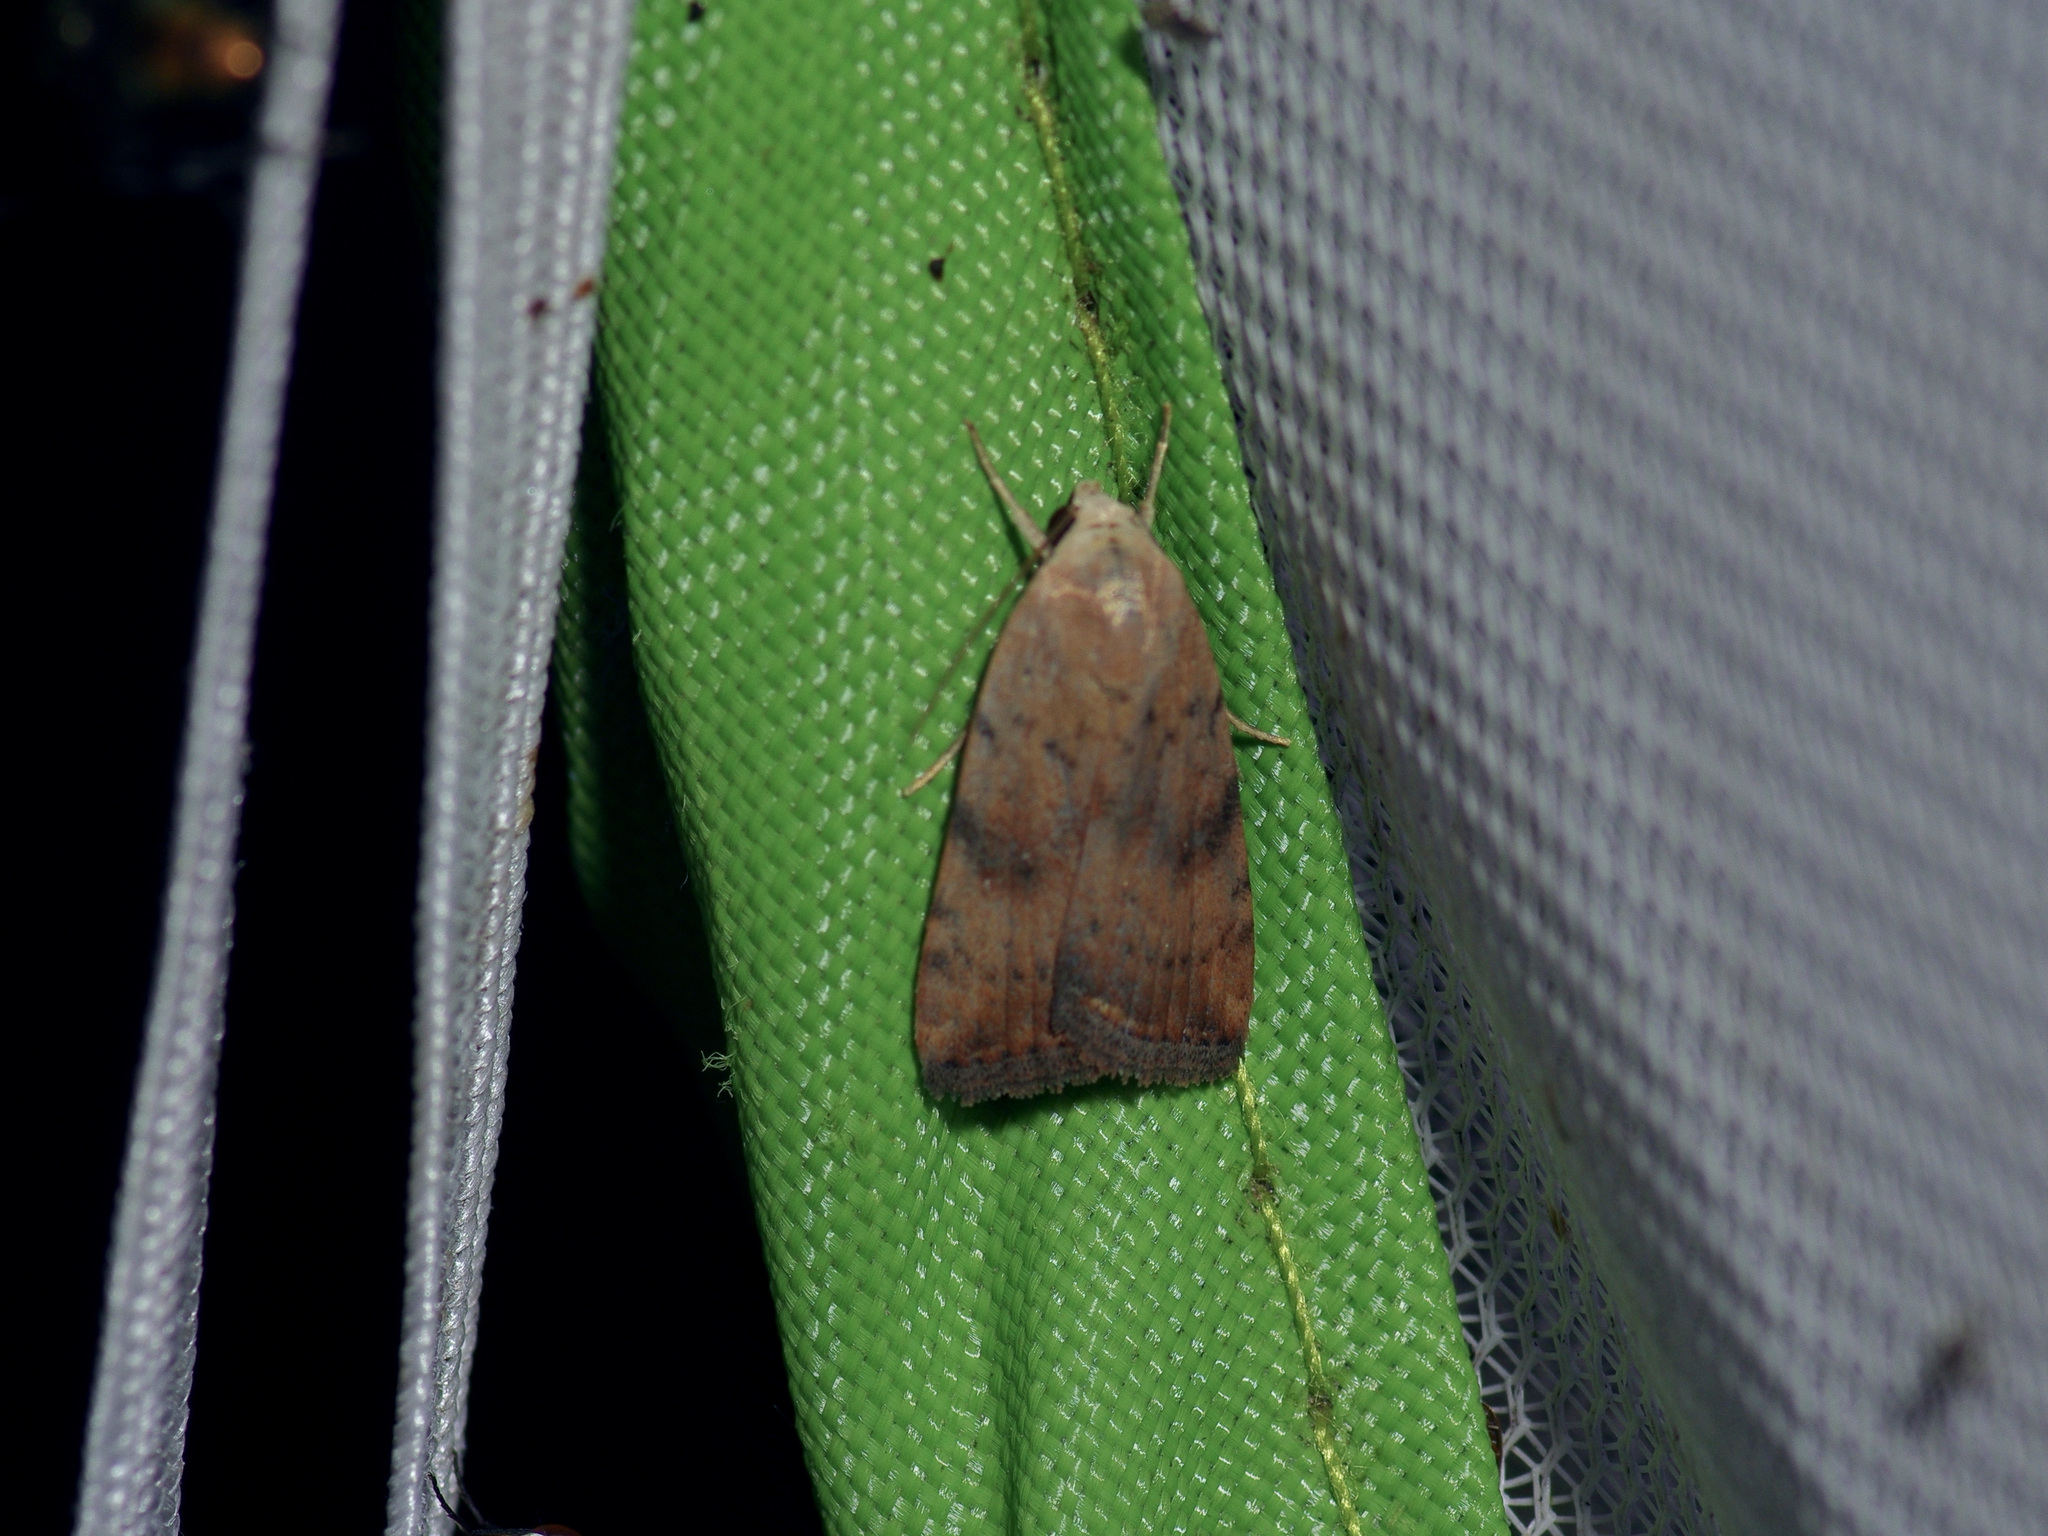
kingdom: Animalia
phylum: Arthropoda
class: Insecta
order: Lepidoptera
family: Noctuidae
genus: Micrathetis
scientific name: Micrathetis triplex
